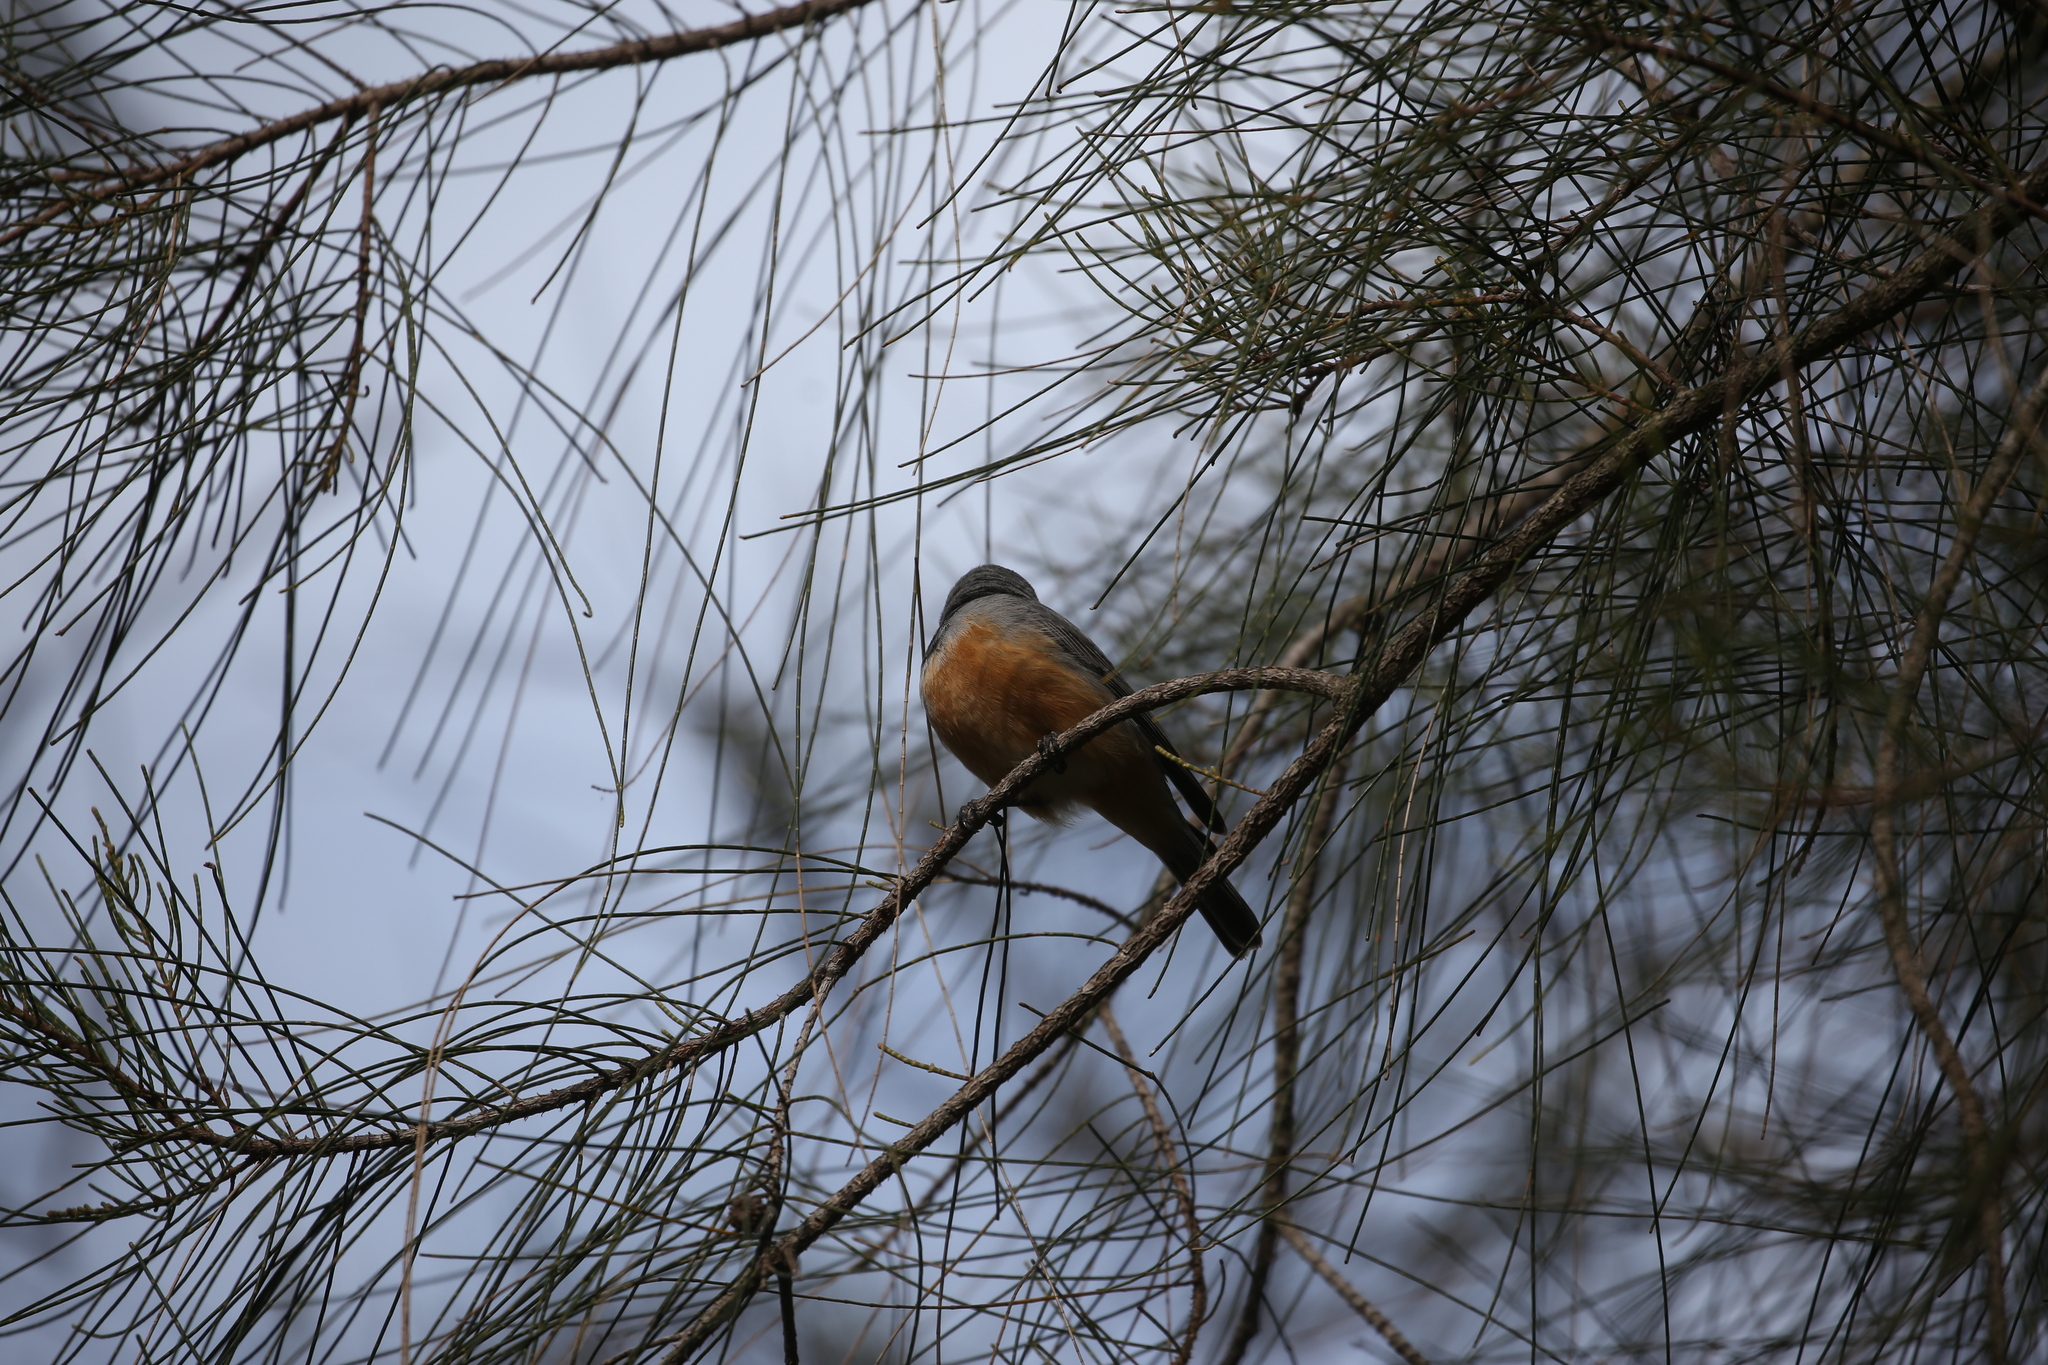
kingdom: Animalia
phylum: Chordata
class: Aves
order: Passeriformes
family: Pachycephalidae
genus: Pachycephala
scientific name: Pachycephala rufiventris
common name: Rufous whistler
